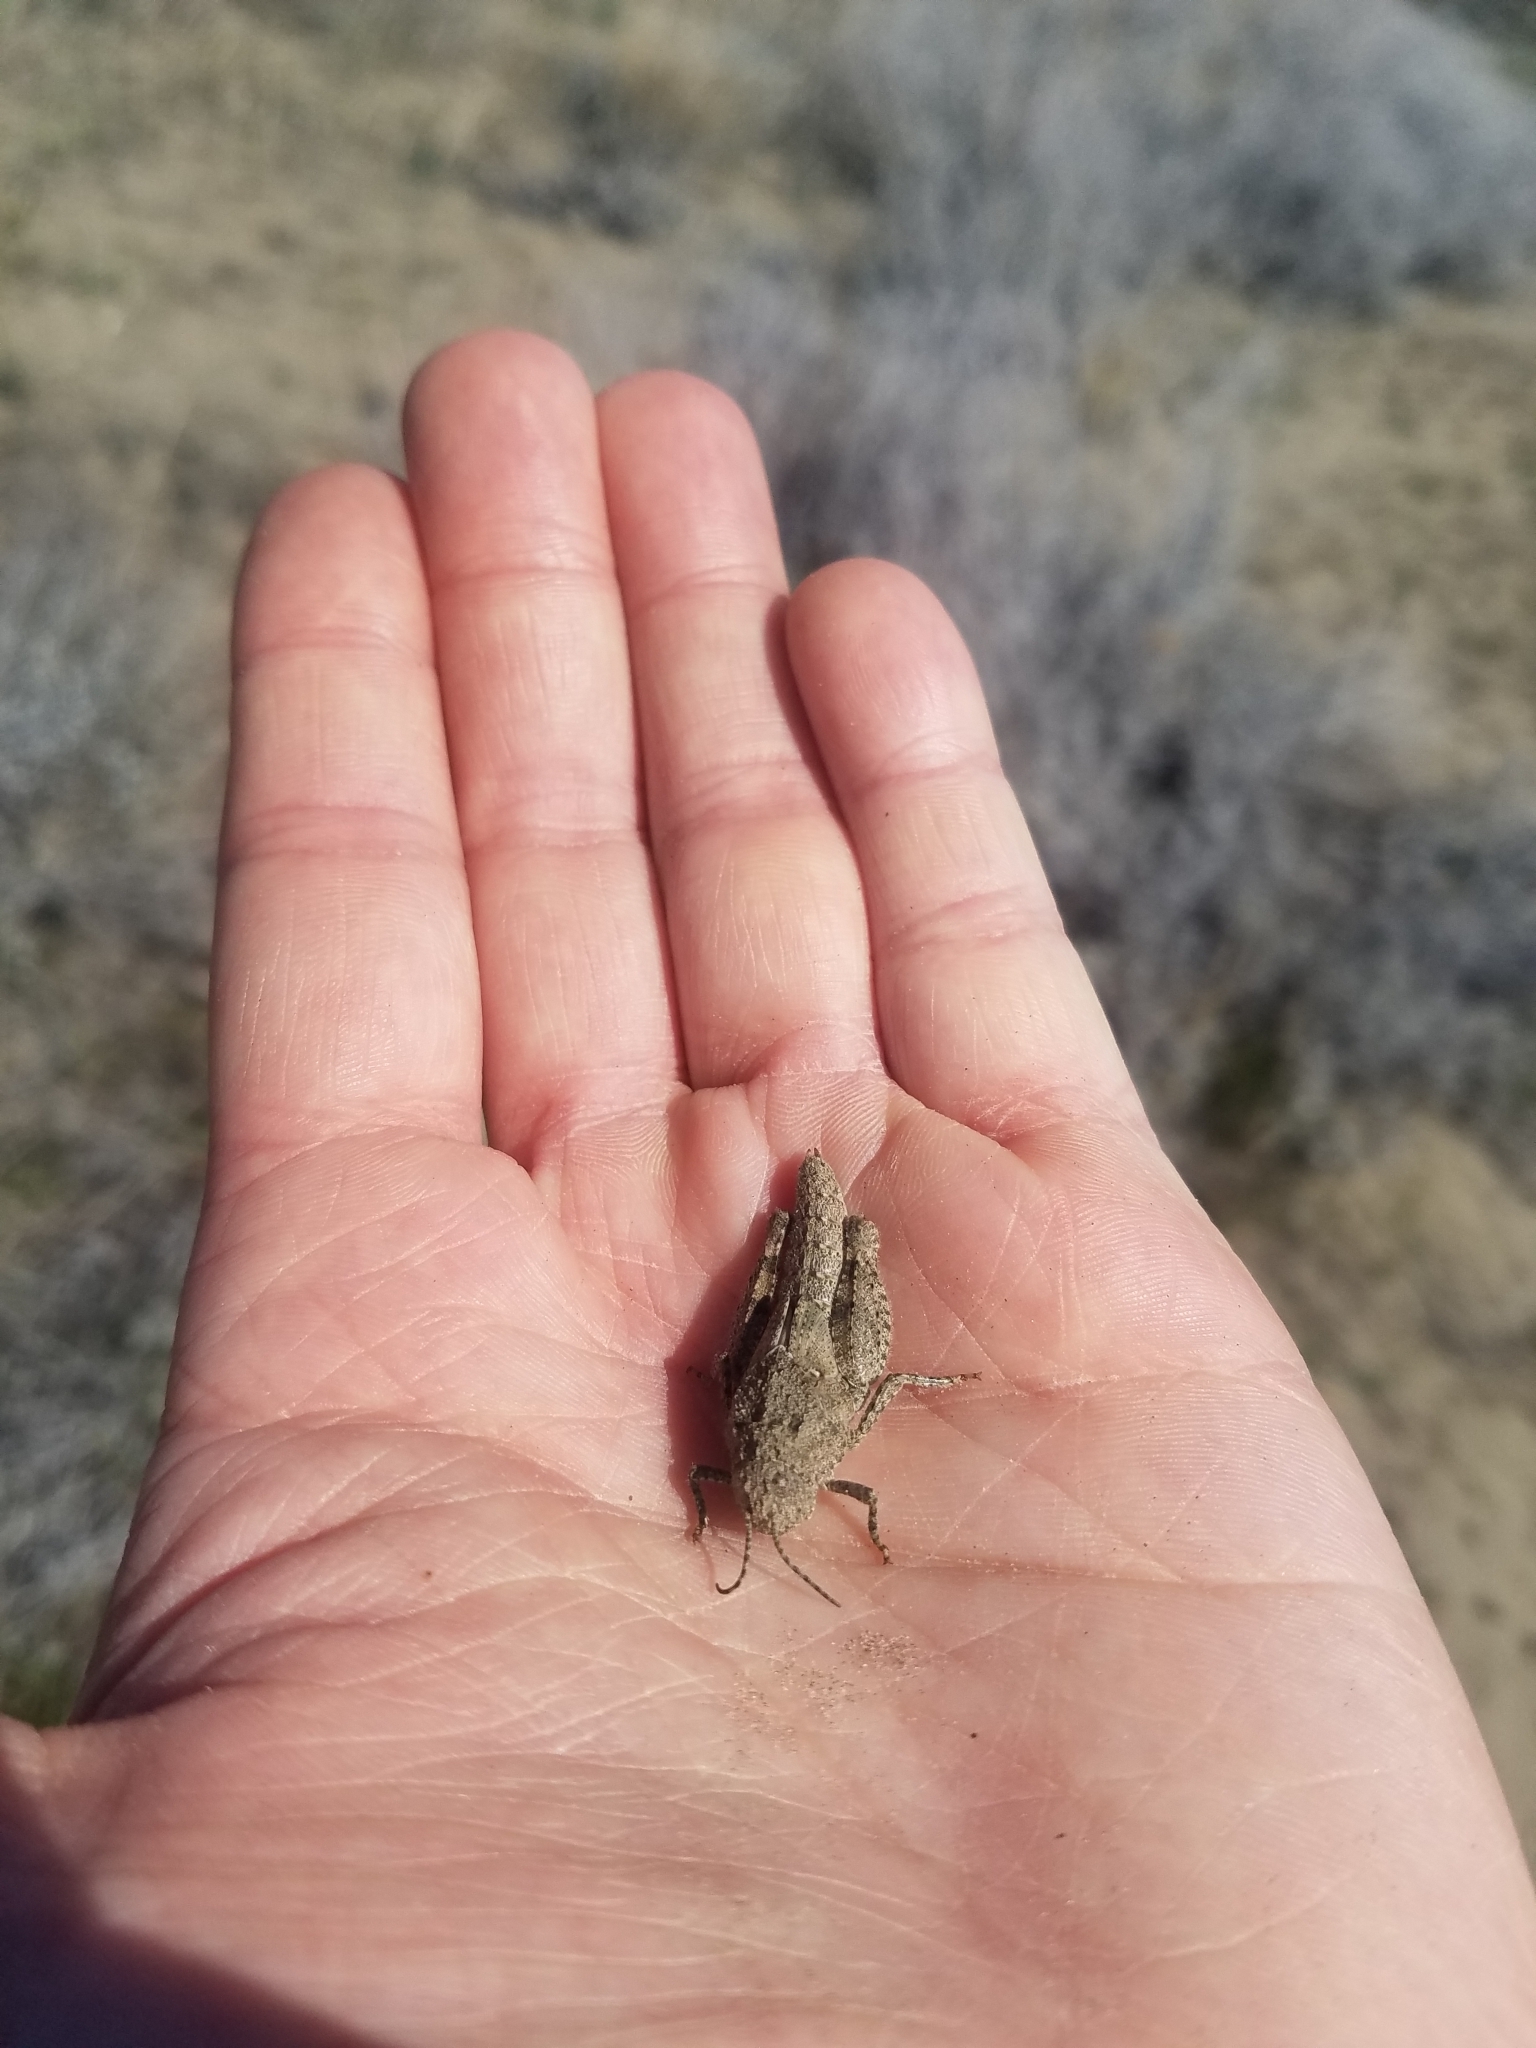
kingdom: Animalia
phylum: Arthropoda
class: Insecta
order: Orthoptera
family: Acrididae
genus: Cratypedes
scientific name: Cratypedes lateritius
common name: Nevada red-winged grasshopper
